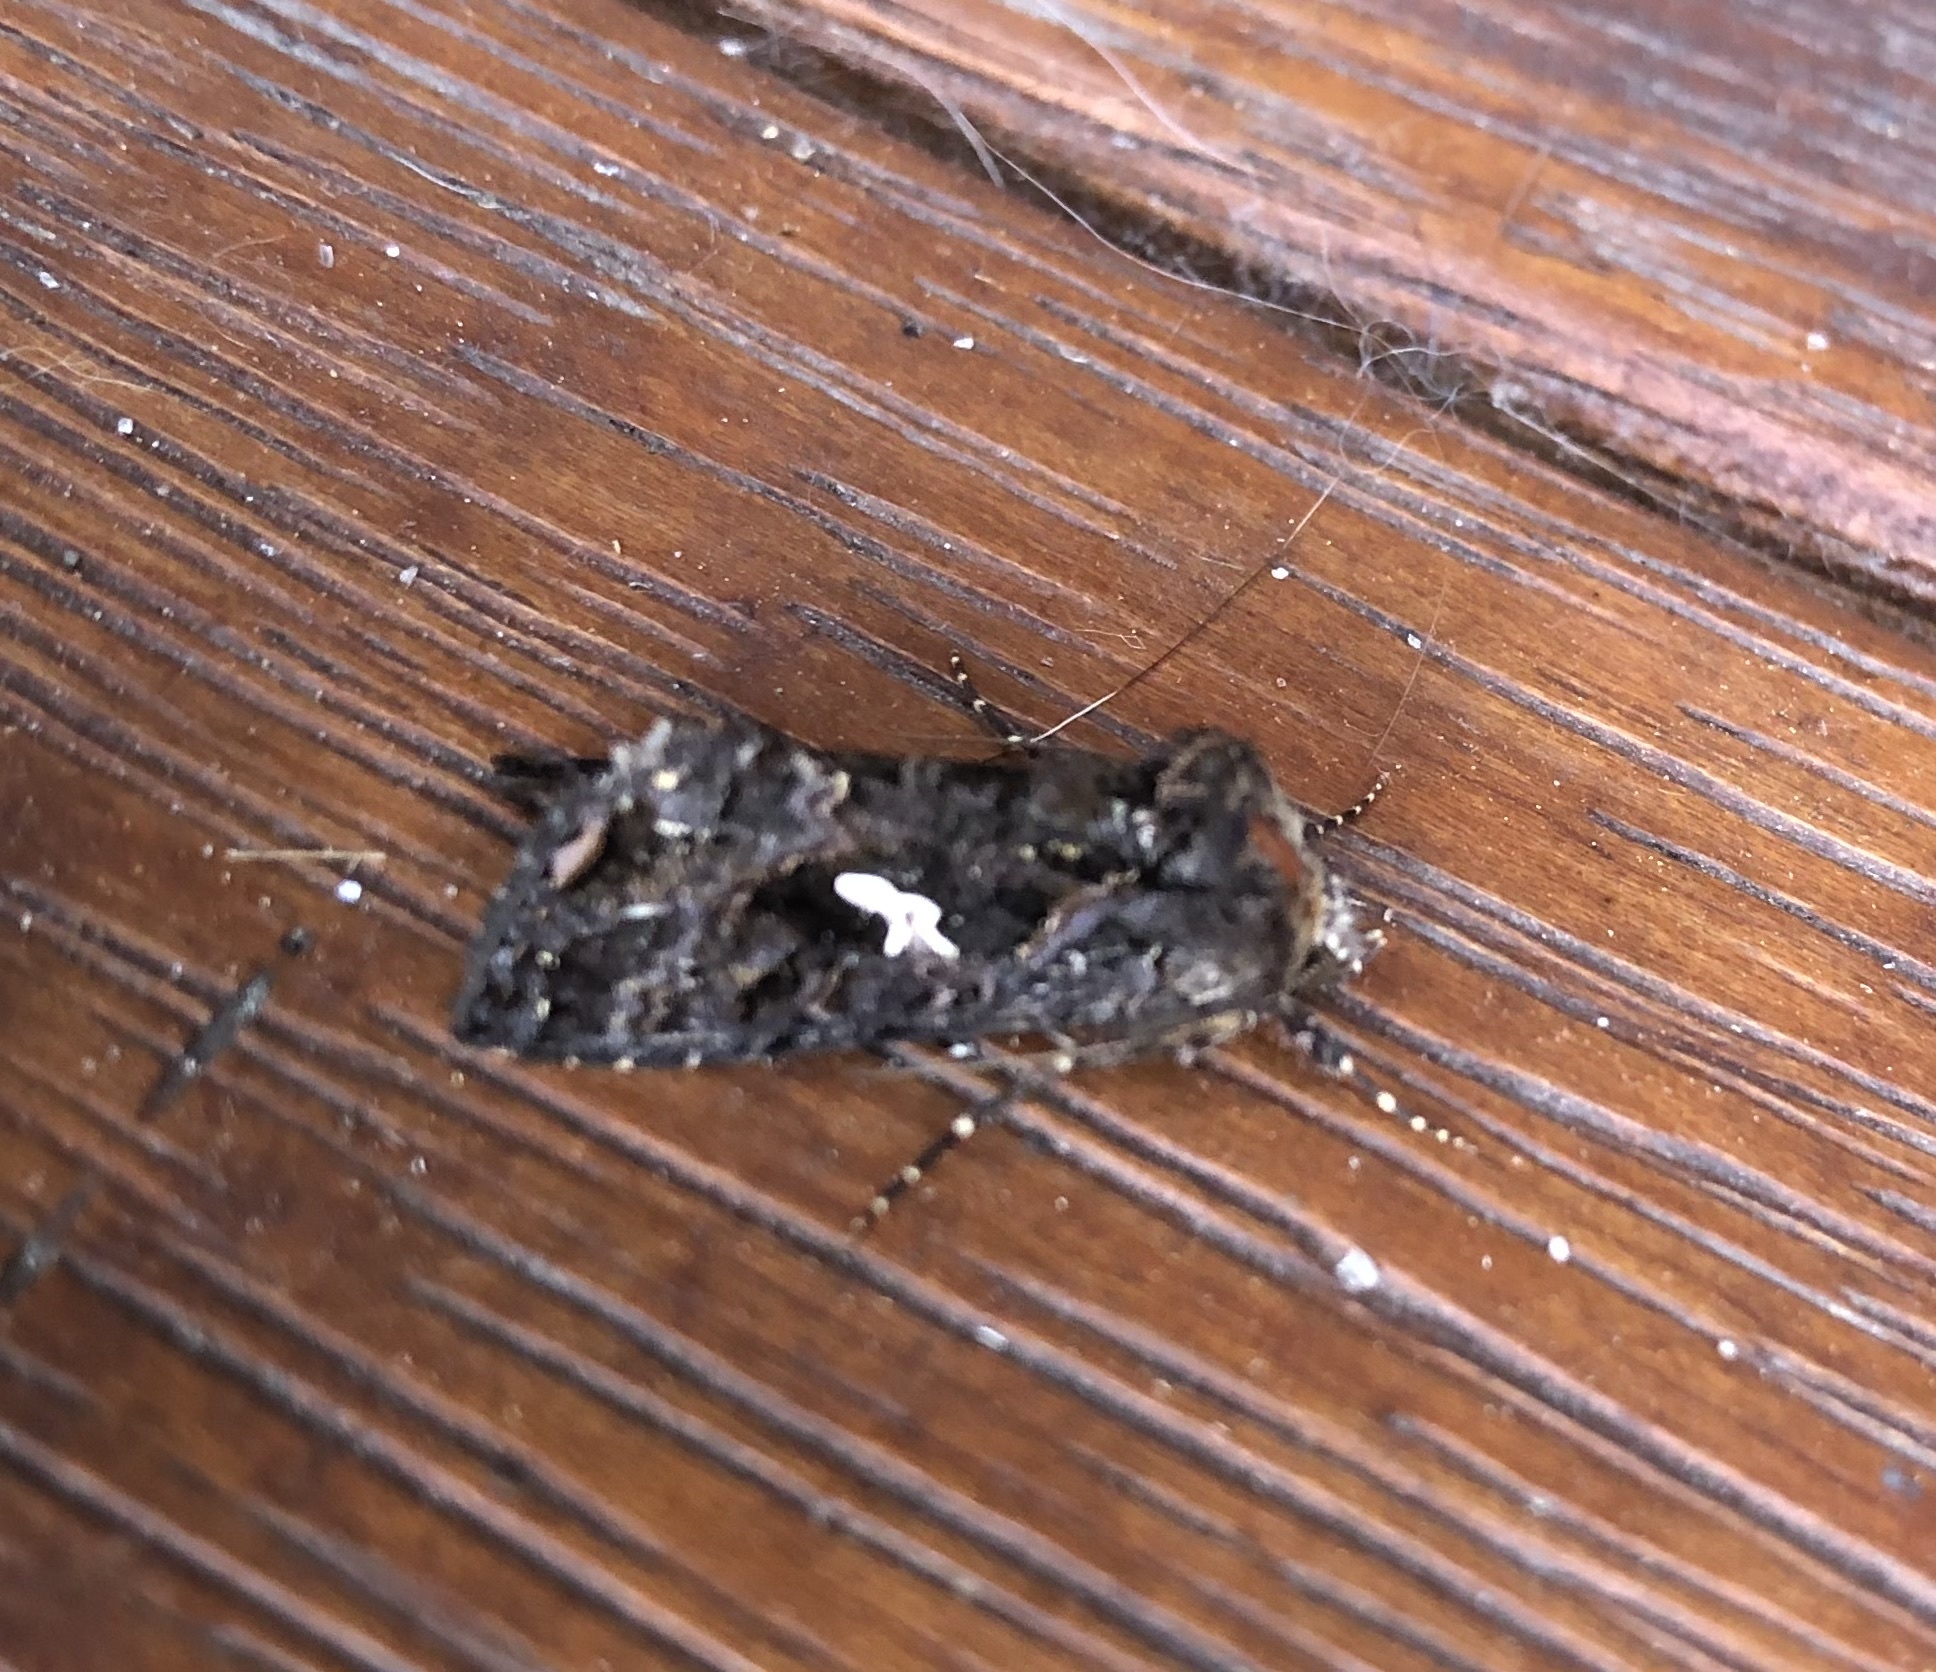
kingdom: Animalia
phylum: Arthropoda
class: Insecta
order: Lepidoptera
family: Noctuidae
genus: Ctenoplusia
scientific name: Ctenoplusia limbirena
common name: Scar bank gem
